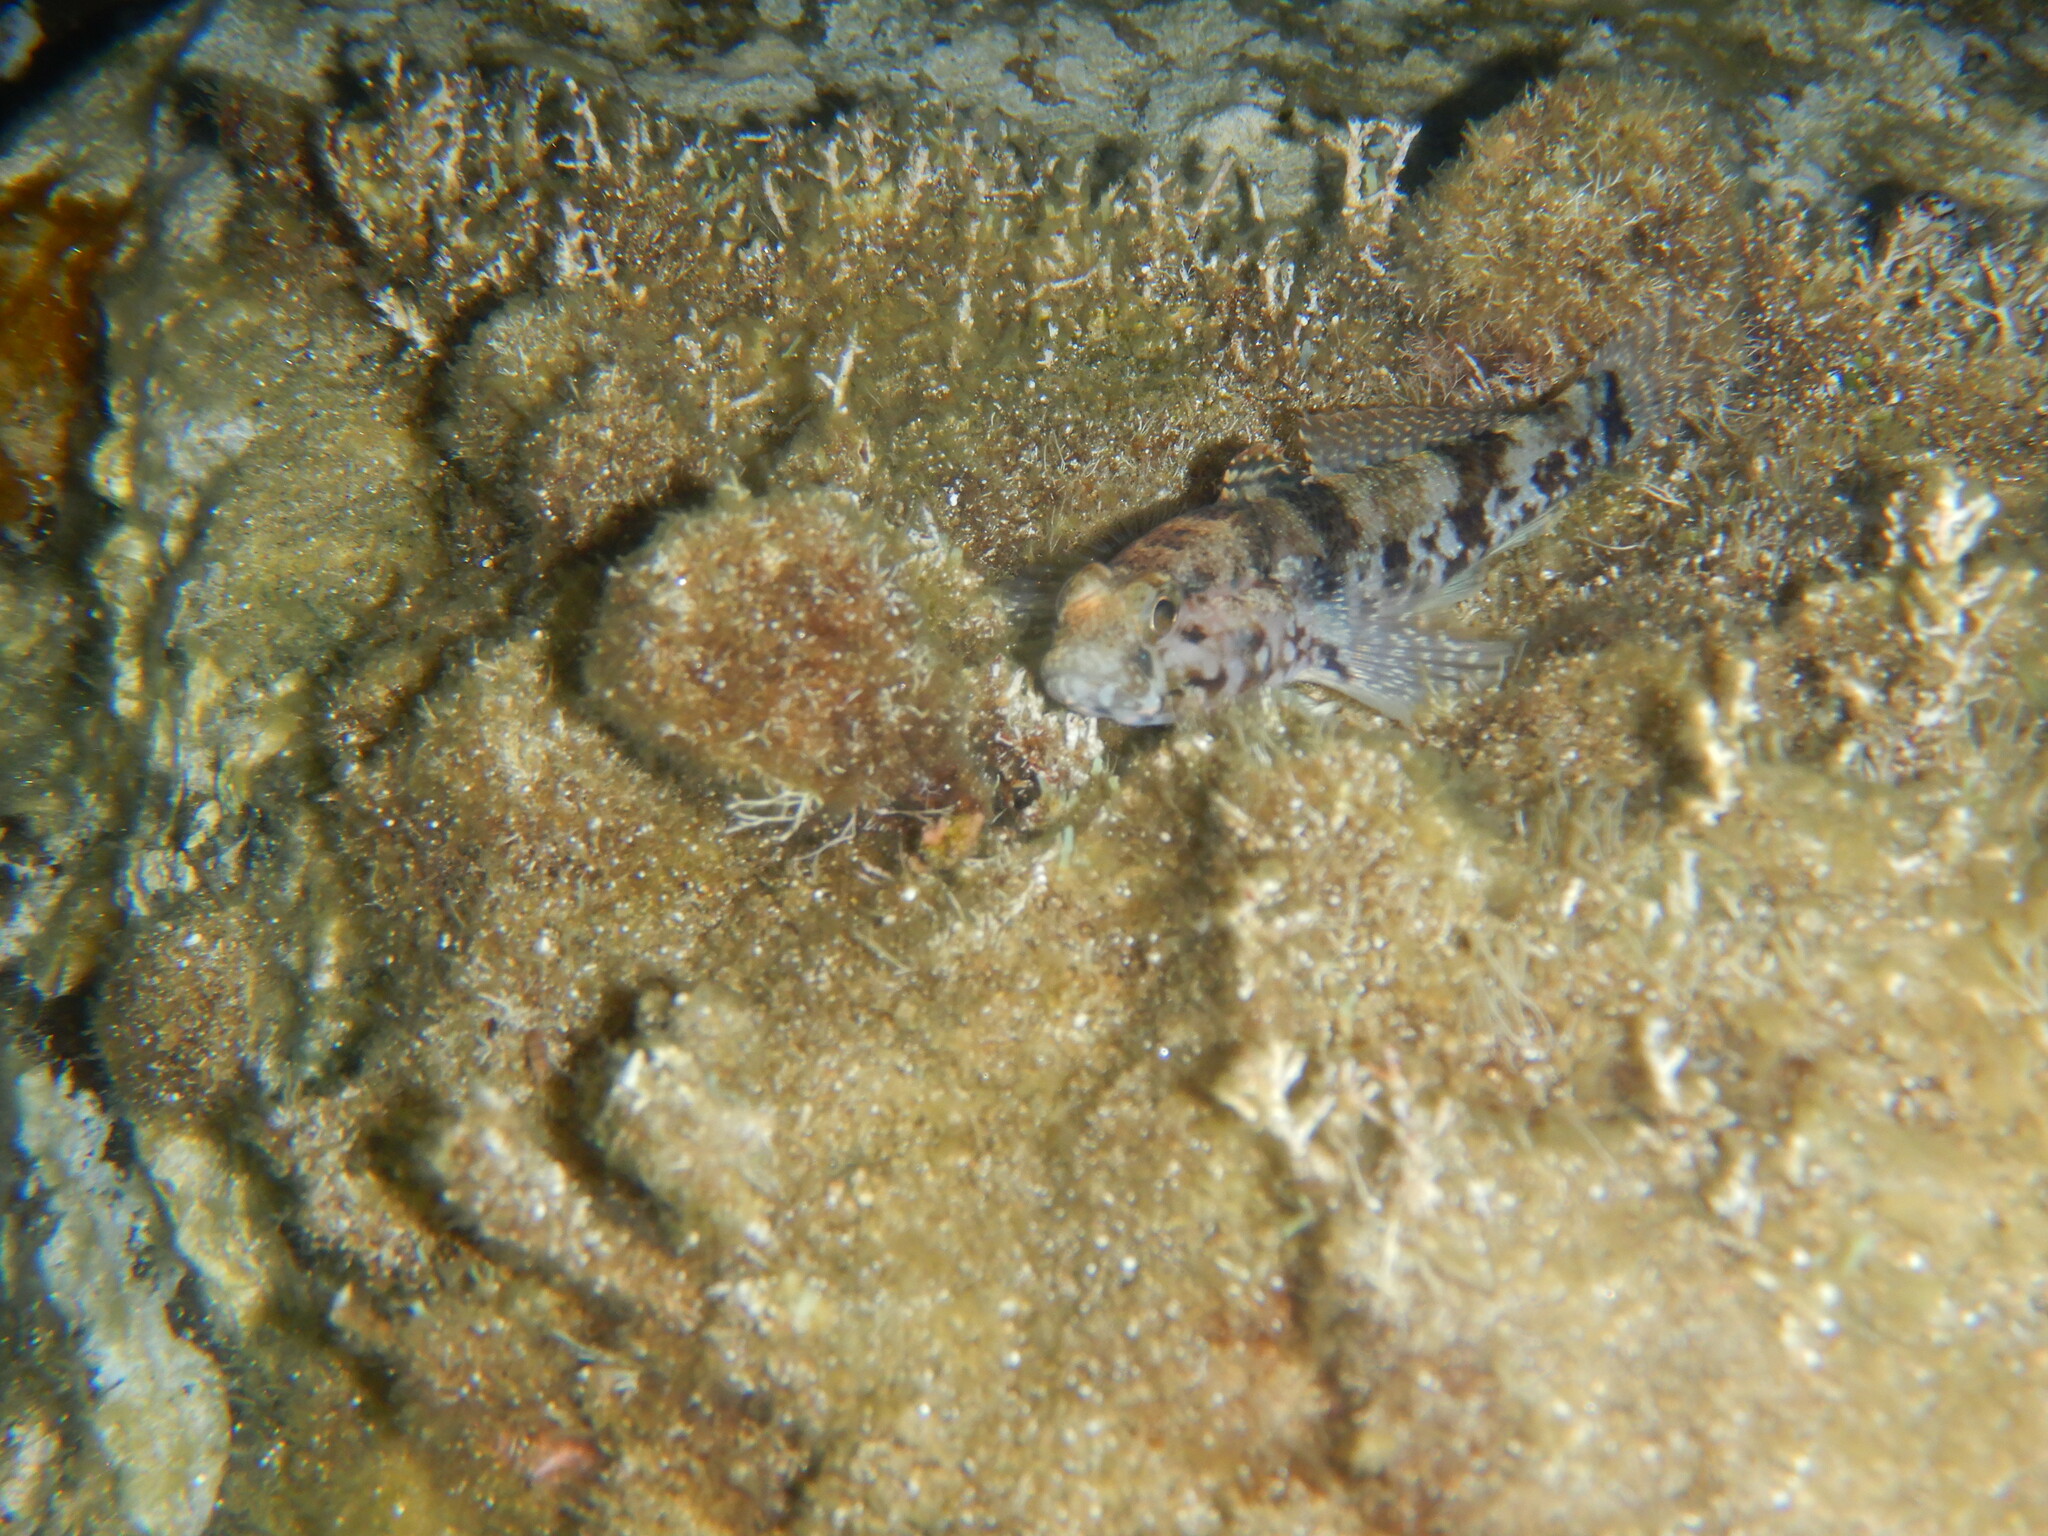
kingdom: Animalia
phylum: Chordata
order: Perciformes
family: Gobiidae
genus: Gobius
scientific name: Gobius paganellus
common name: Rock goby
